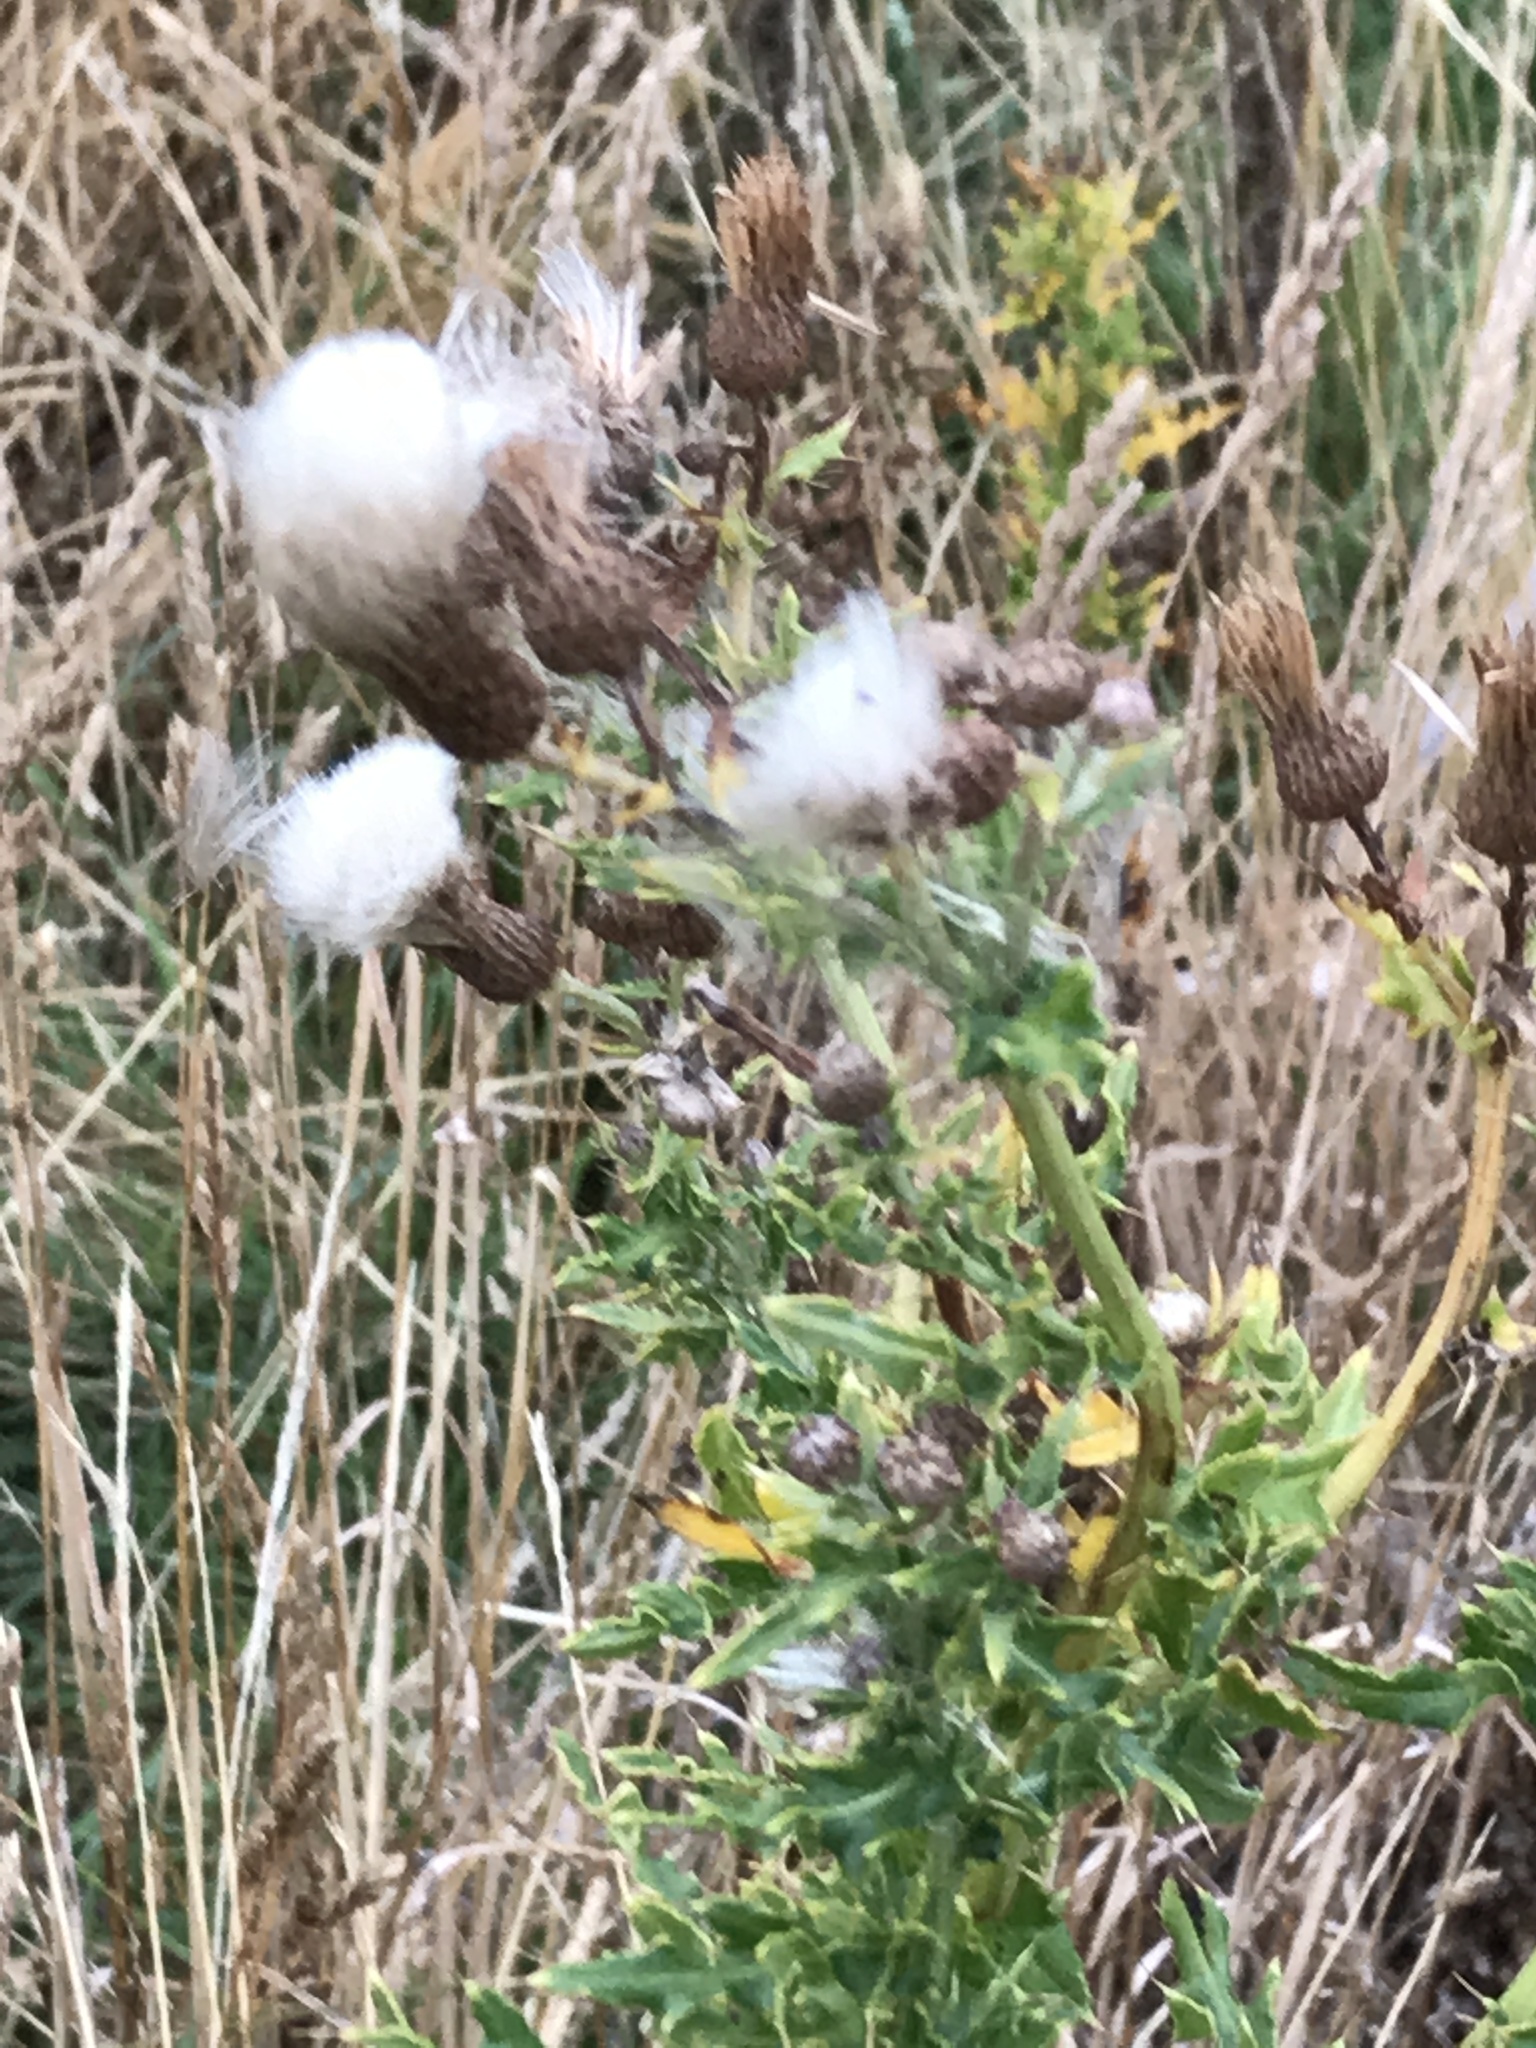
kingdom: Plantae
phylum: Tracheophyta
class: Magnoliopsida
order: Asterales
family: Asteraceae
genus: Cirsium
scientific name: Cirsium arvense
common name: Creeping thistle
